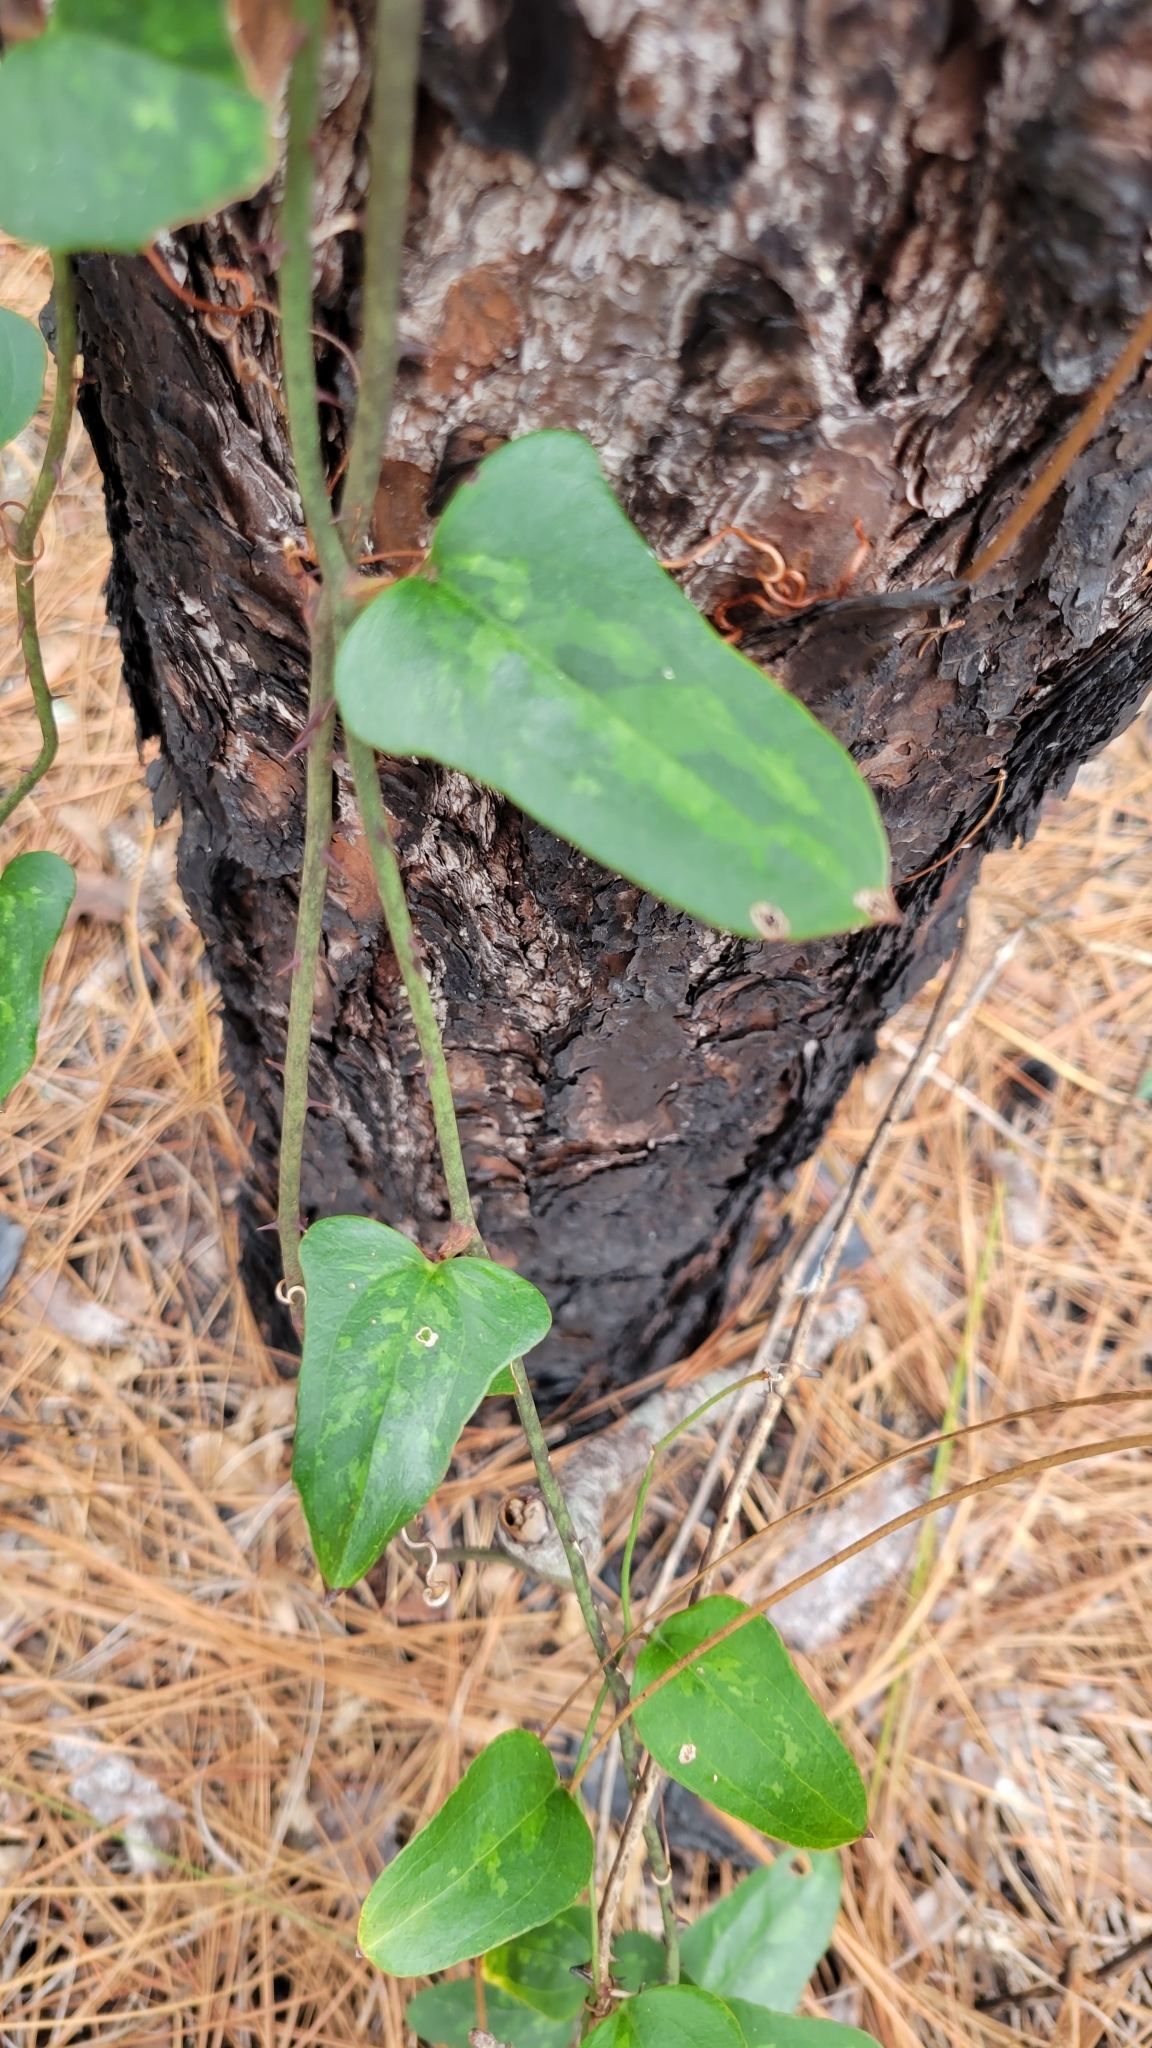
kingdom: Plantae
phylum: Tracheophyta
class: Liliopsida
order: Liliales
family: Smilacaceae
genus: Smilax
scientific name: Smilax auriculata
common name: Wild bamboo
